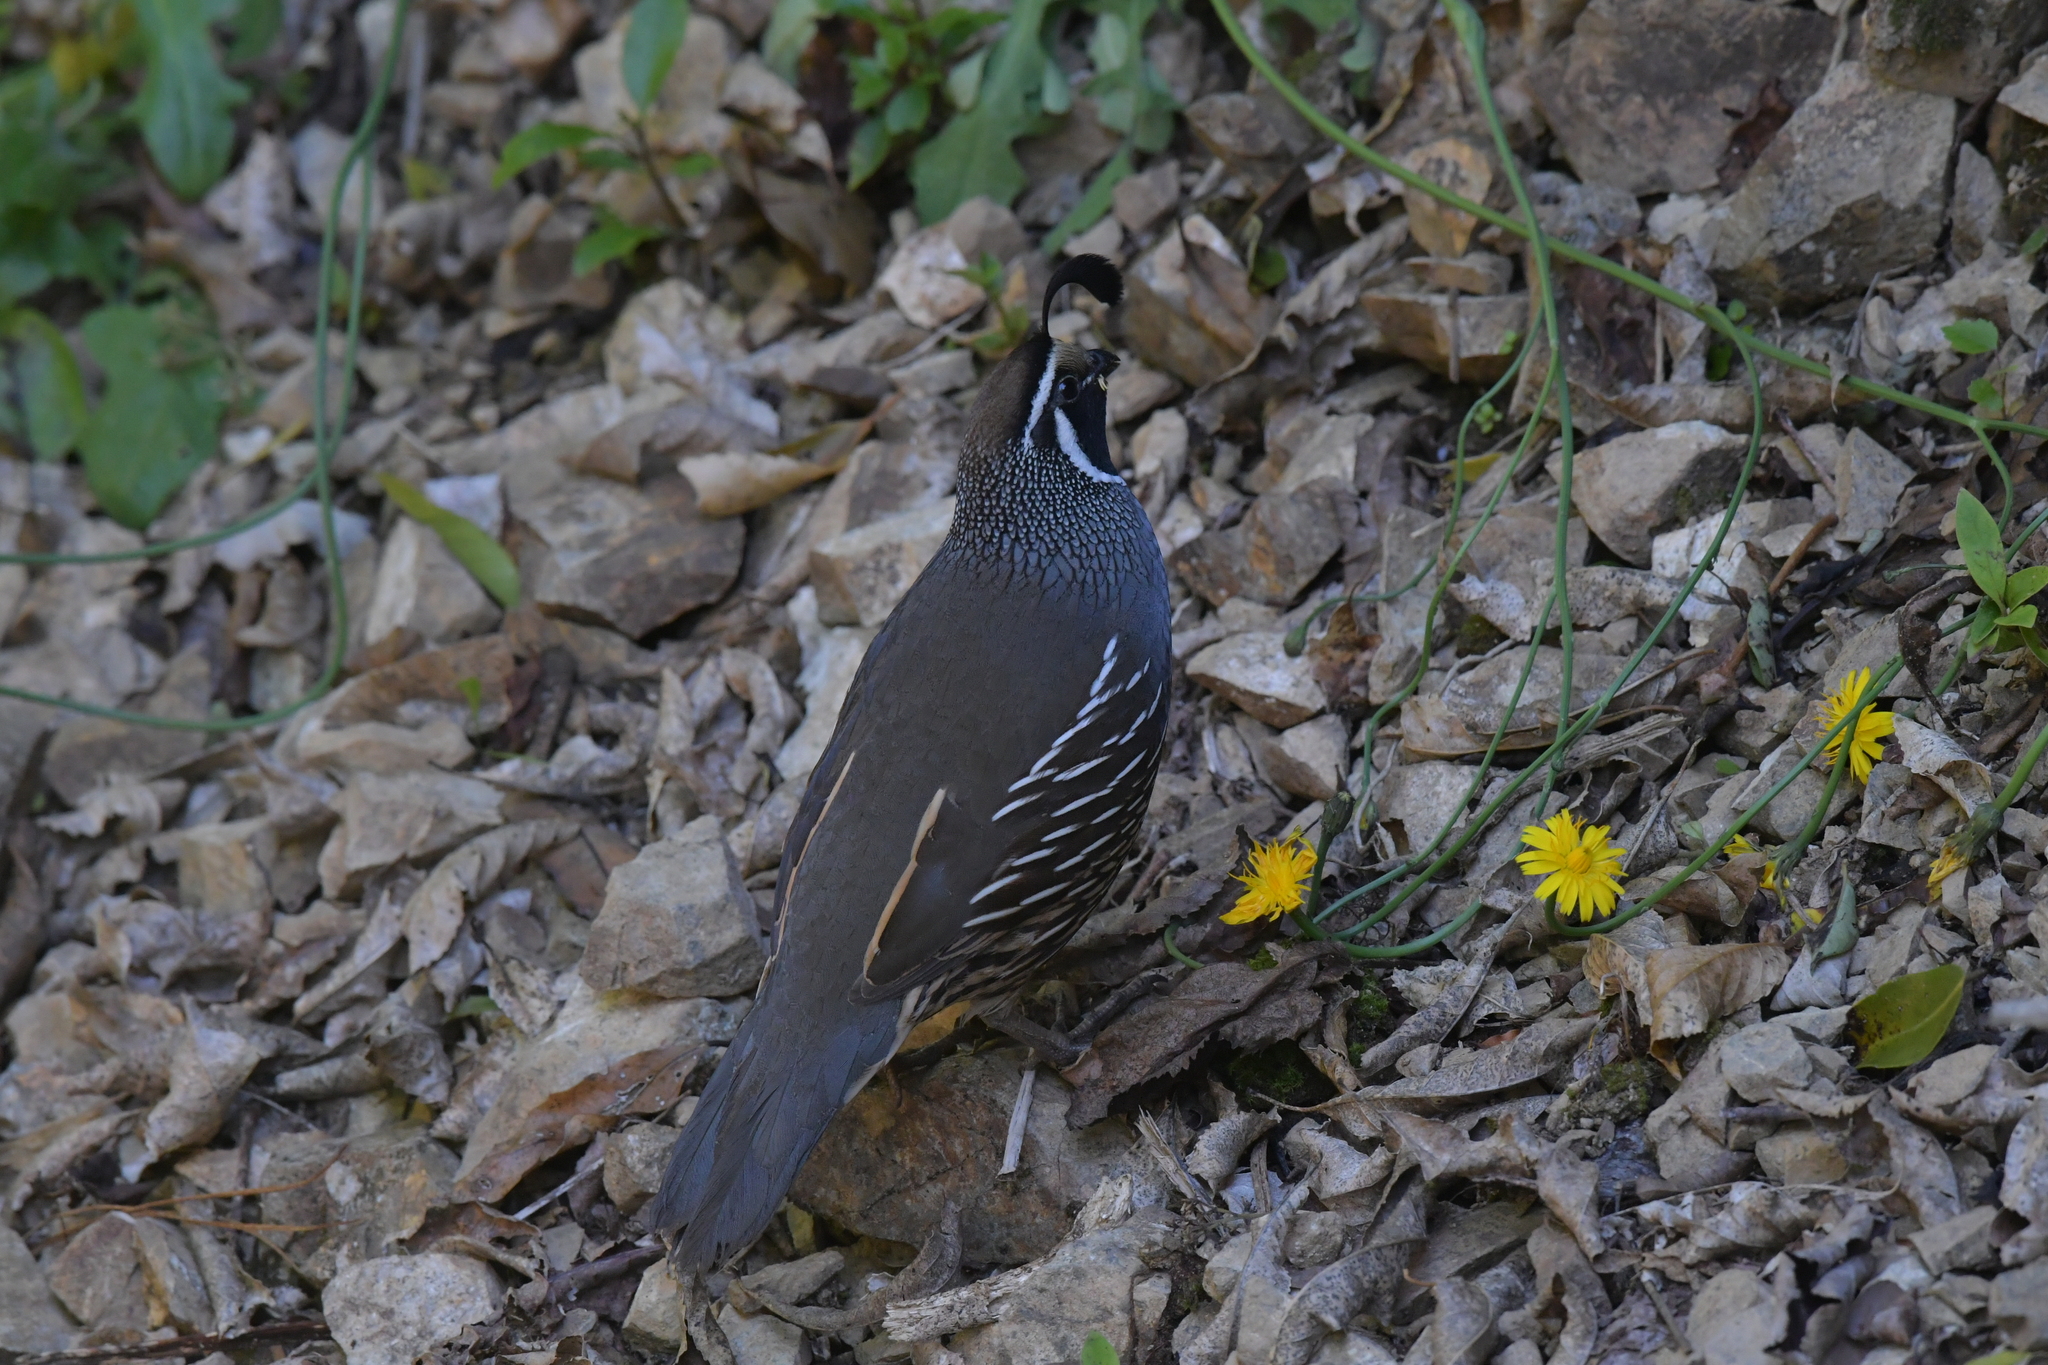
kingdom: Animalia
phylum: Chordata
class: Aves
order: Galliformes
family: Odontophoridae
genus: Callipepla
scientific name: Callipepla californica
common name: California quail
